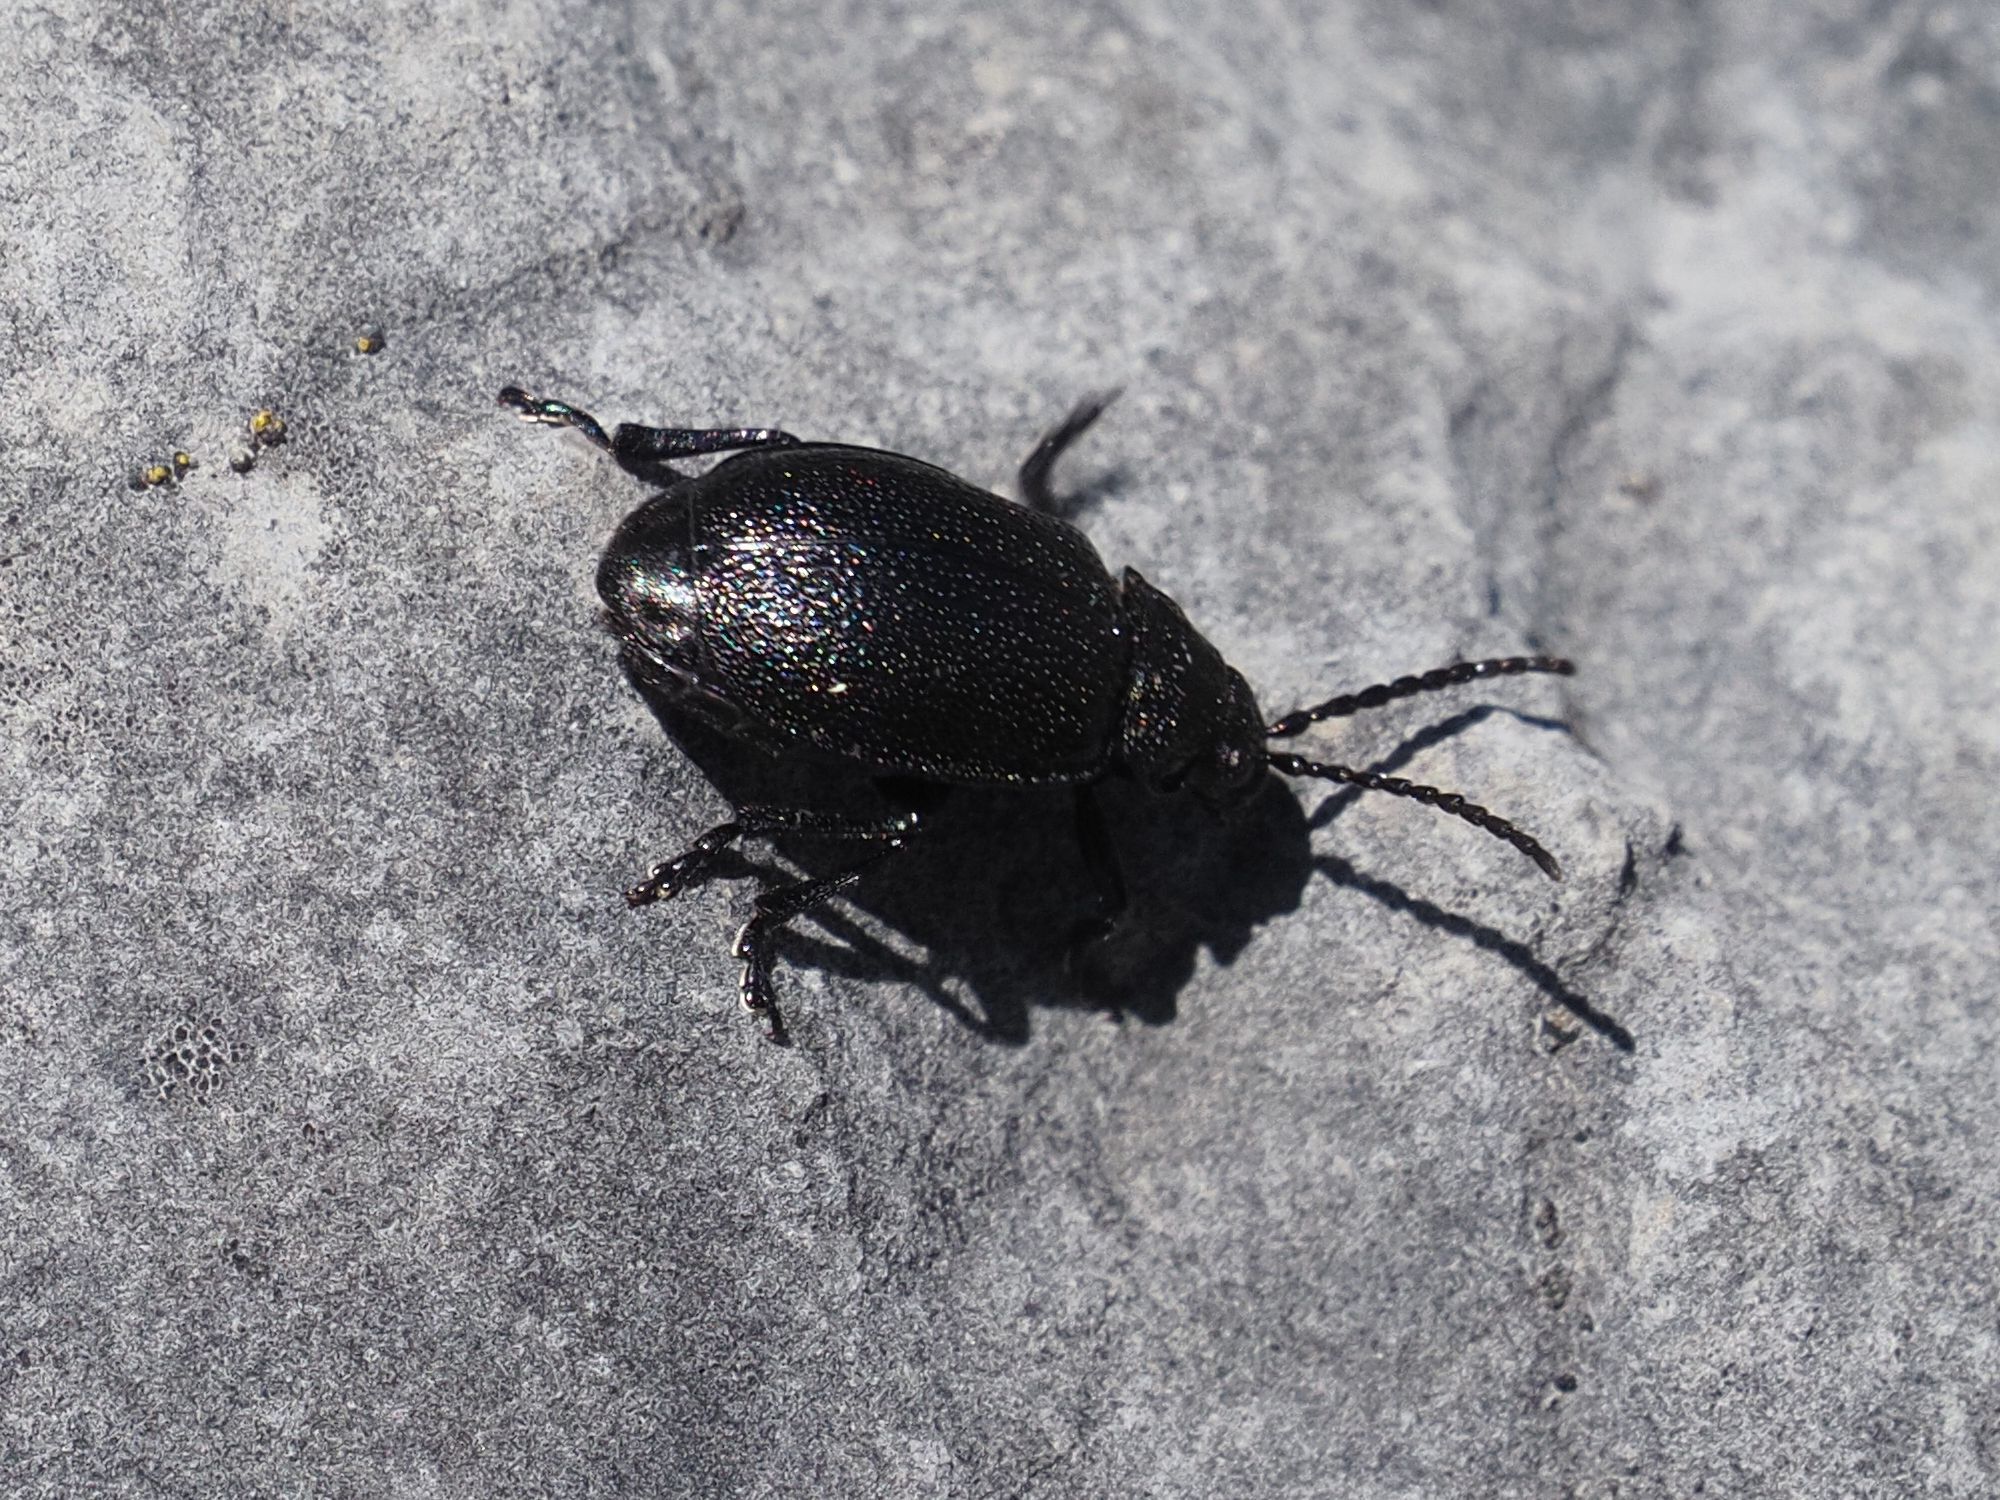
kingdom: Animalia
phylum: Arthropoda
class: Insecta
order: Coleoptera
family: Chrysomelidae
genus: Galeruca
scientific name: Galeruca tanaceti
